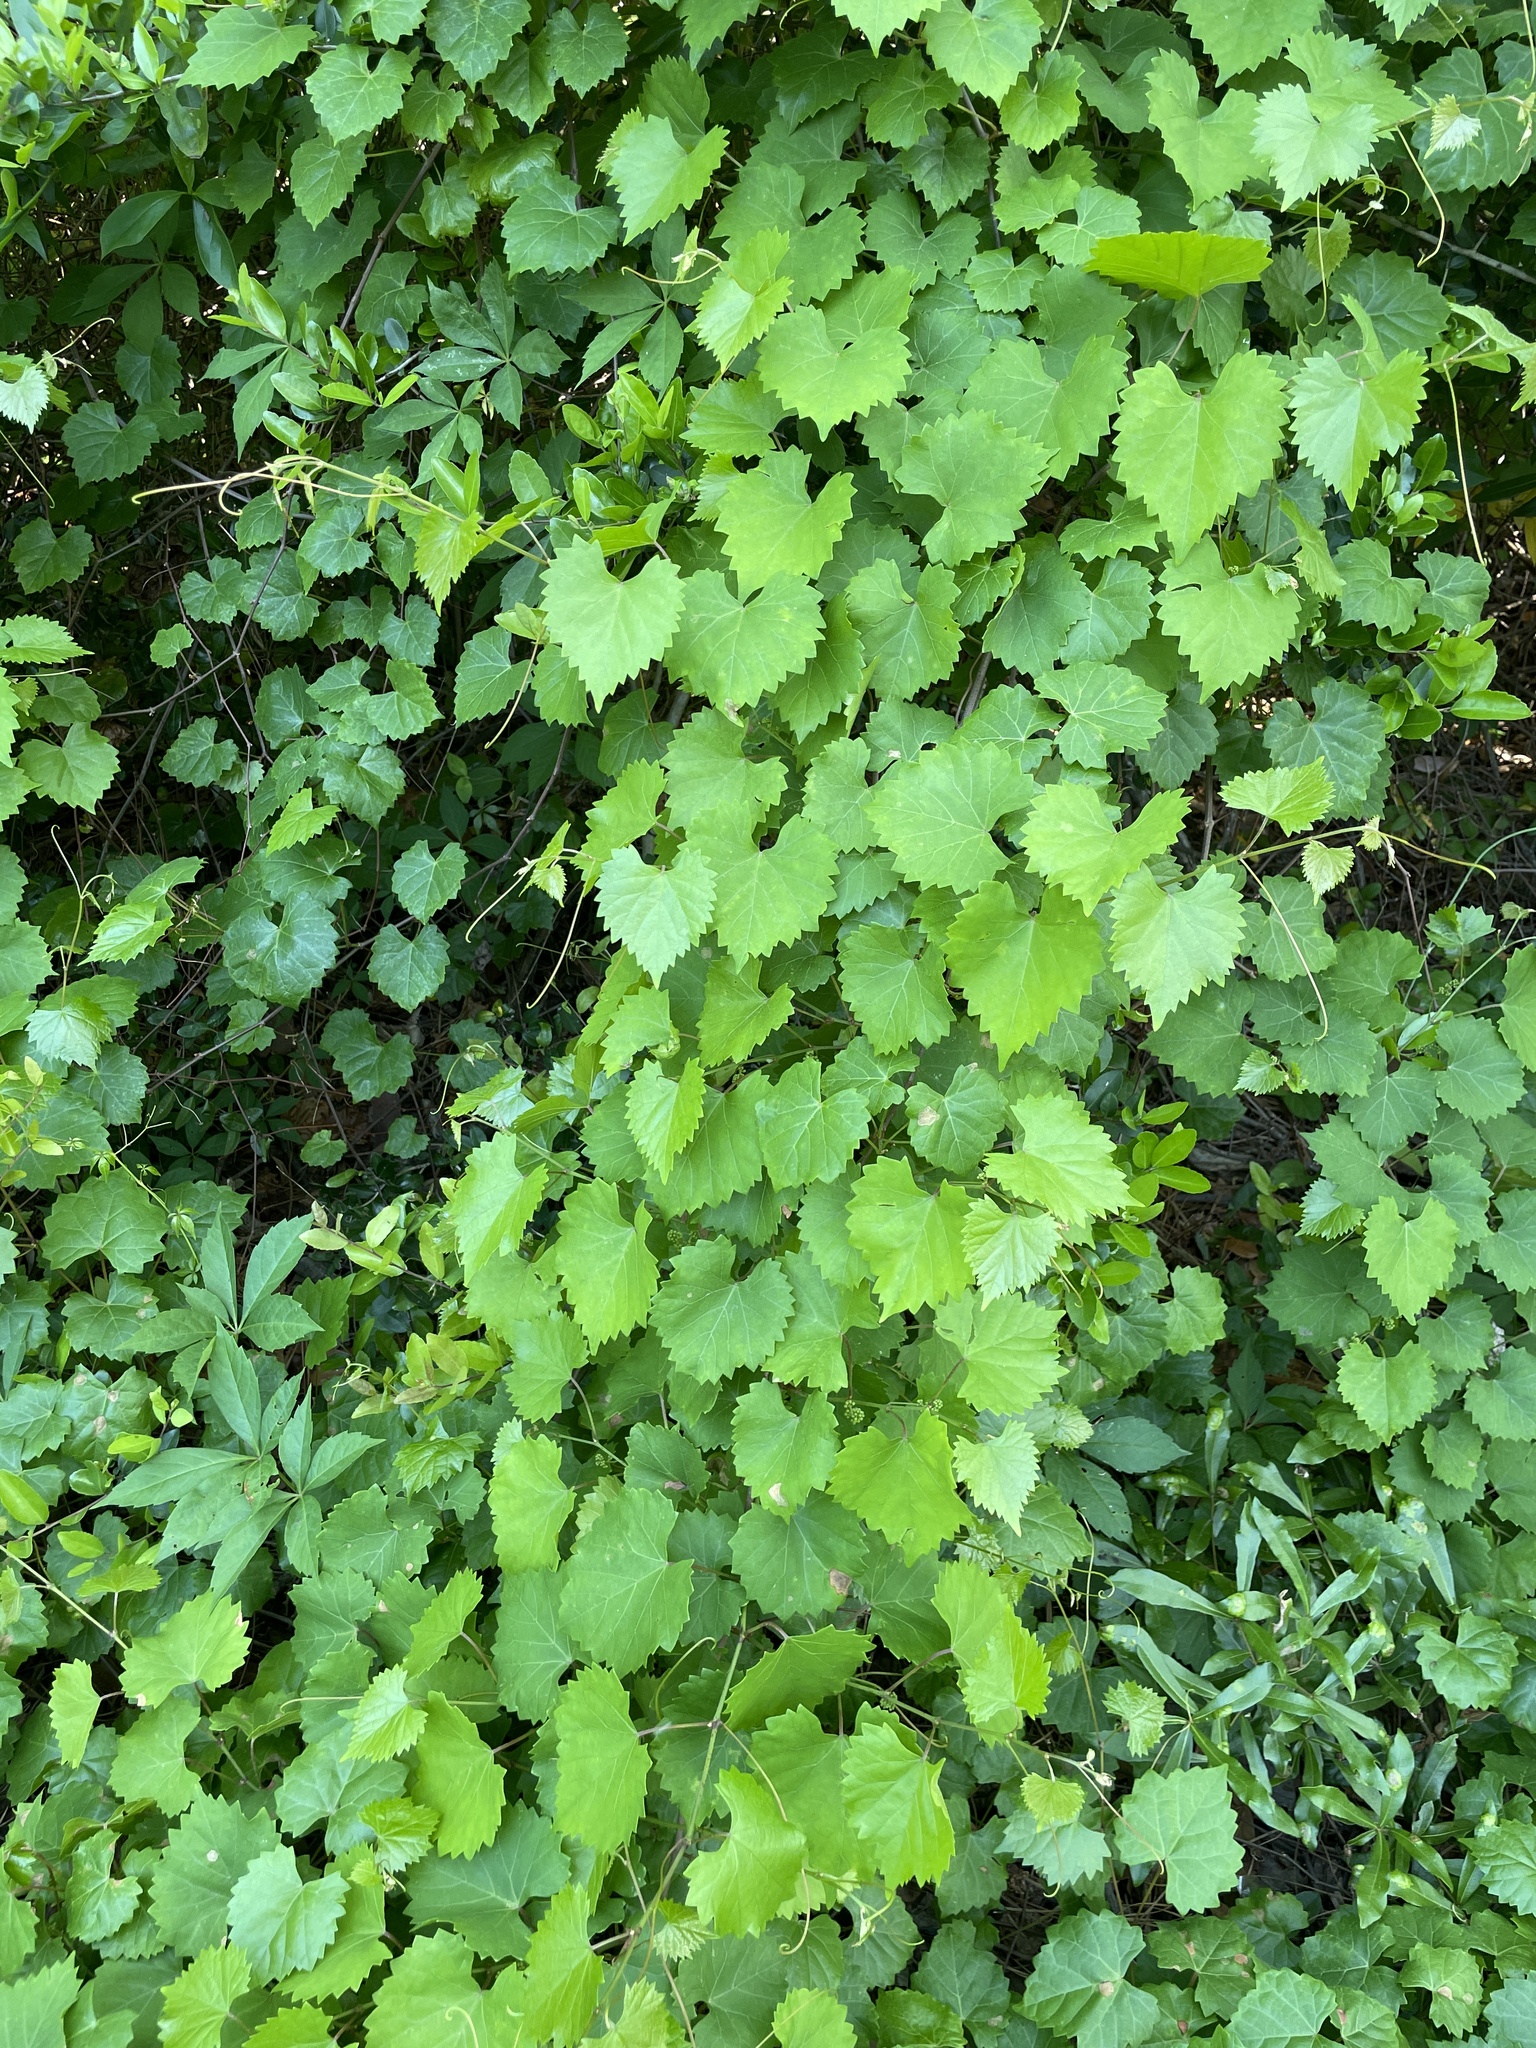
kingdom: Plantae
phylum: Tracheophyta
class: Magnoliopsida
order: Vitales
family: Vitaceae
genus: Vitis
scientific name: Vitis rotundifolia
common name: Muscadine grape
